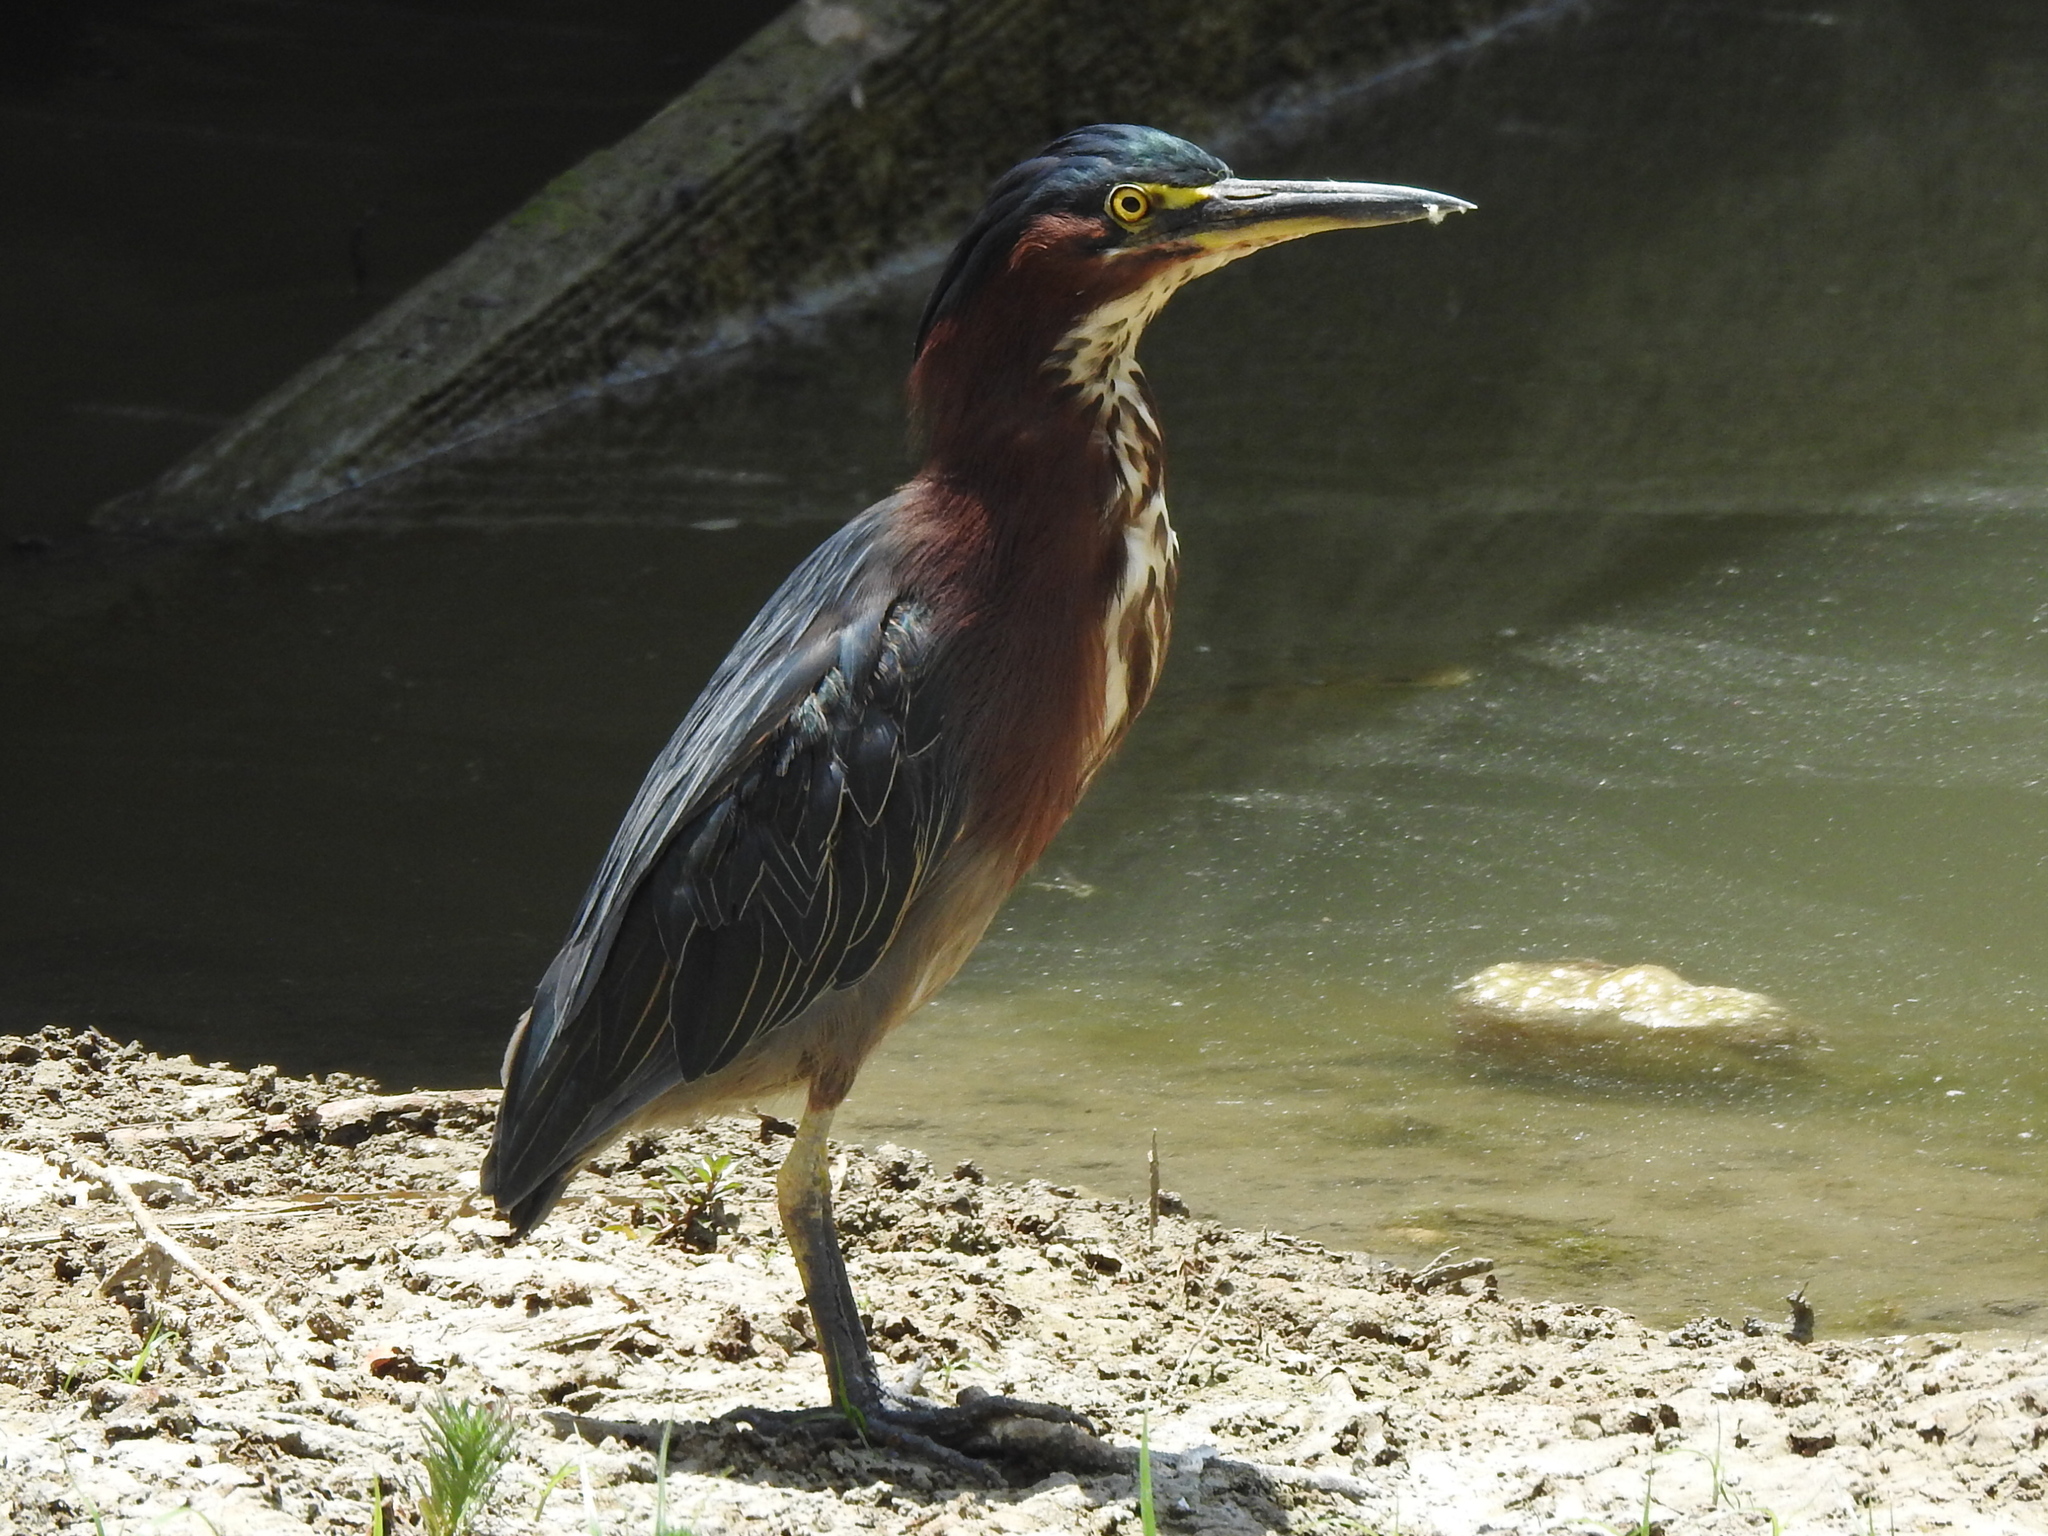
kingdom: Animalia
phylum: Chordata
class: Aves
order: Pelecaniformes
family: Ardeidae
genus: Butorides
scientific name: Butorides virescens
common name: Green heron
